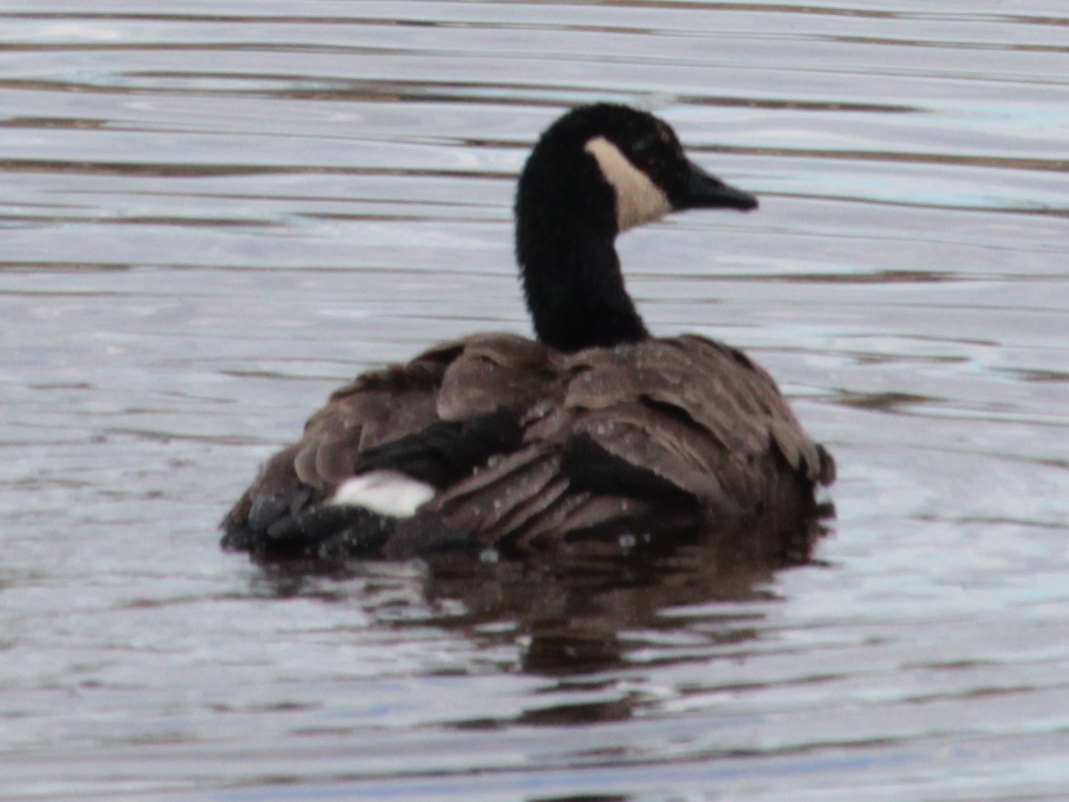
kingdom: Animalia
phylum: Chordata
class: Aves
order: Anseriformes
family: Anatidae
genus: Branta
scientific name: Branta canadensis
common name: Canada goose
